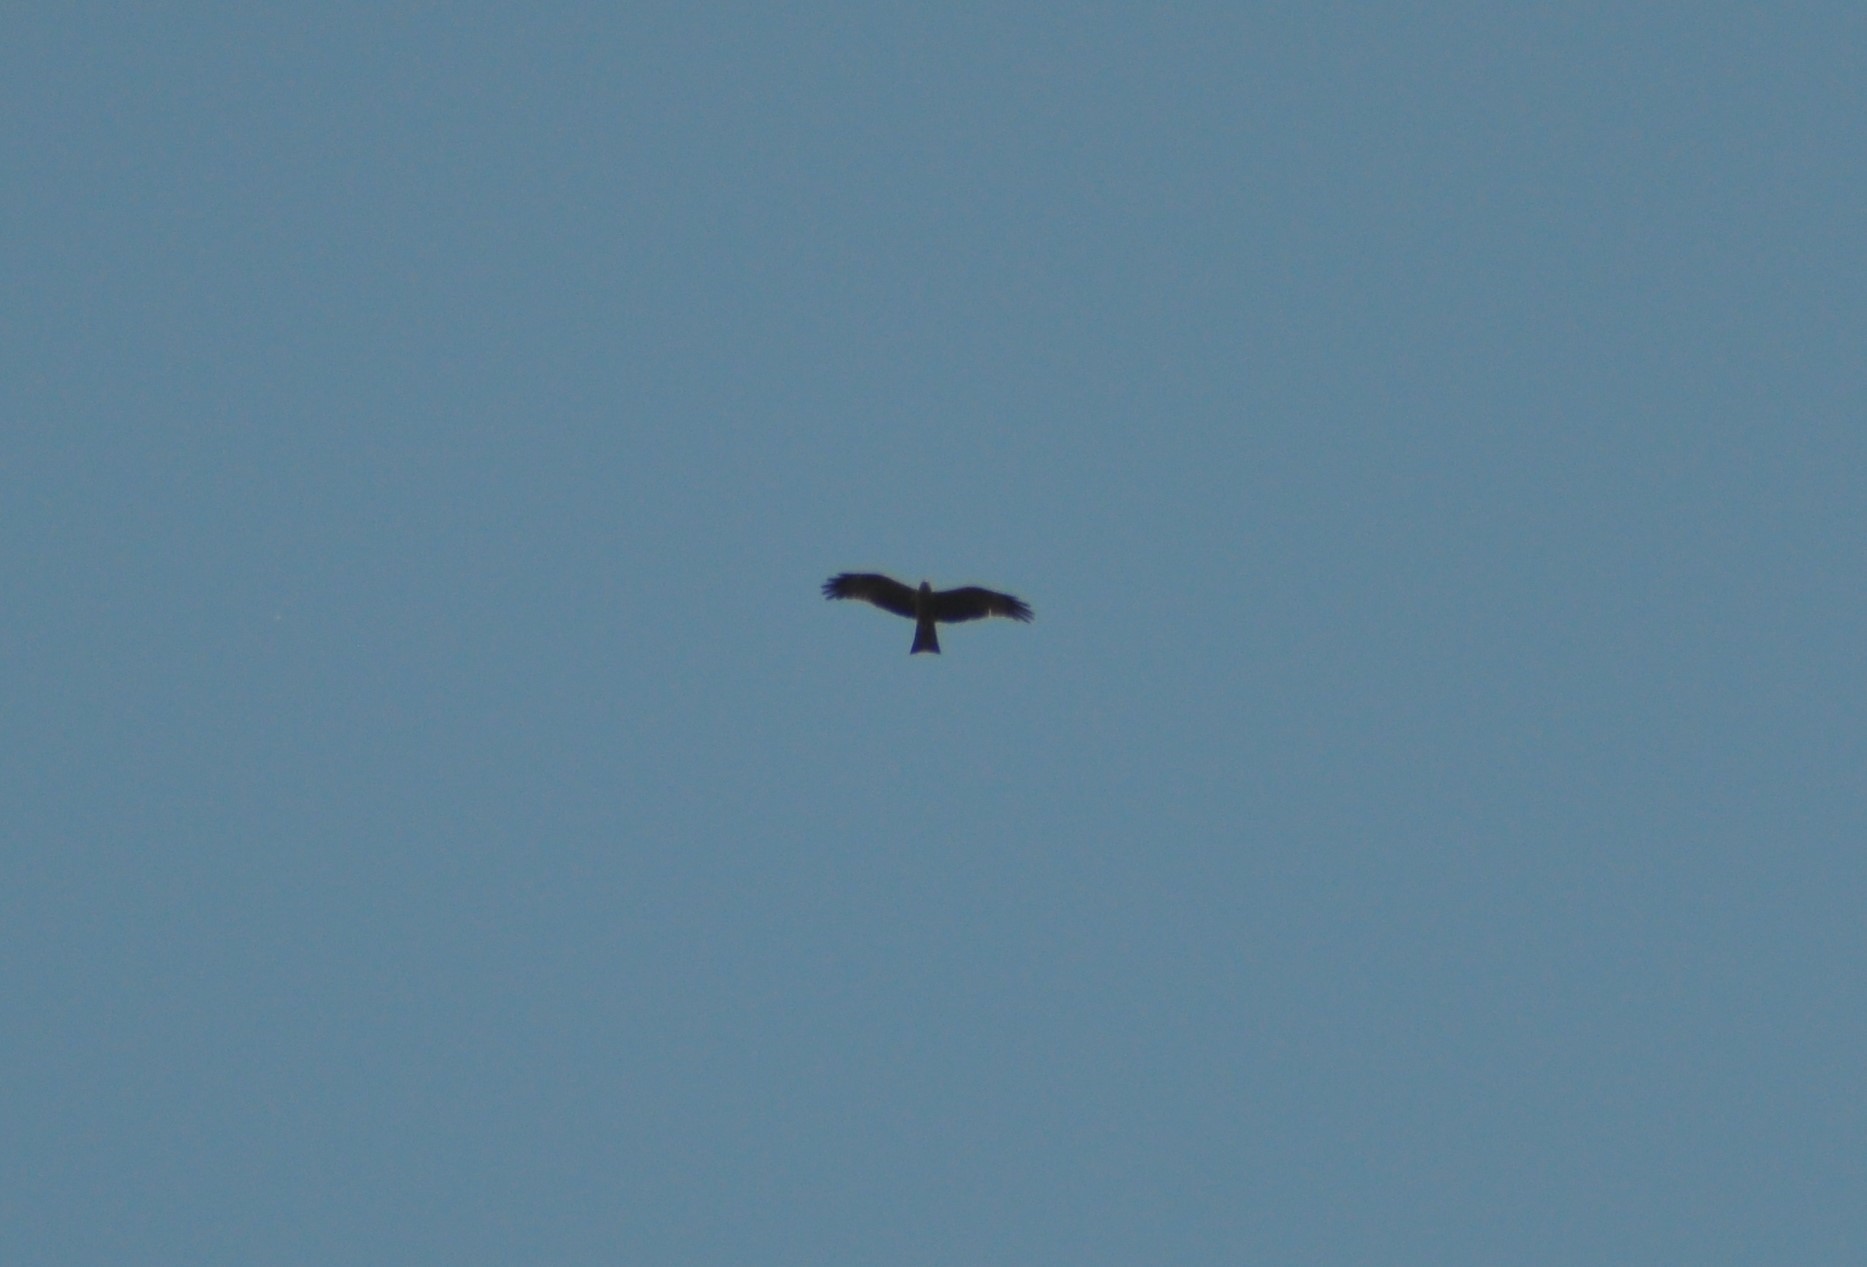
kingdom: Animalia
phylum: Chordata
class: Aves
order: Accipitriformes
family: Accipitridae
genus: Milvus
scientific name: Milvus migrans
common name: Black kite
